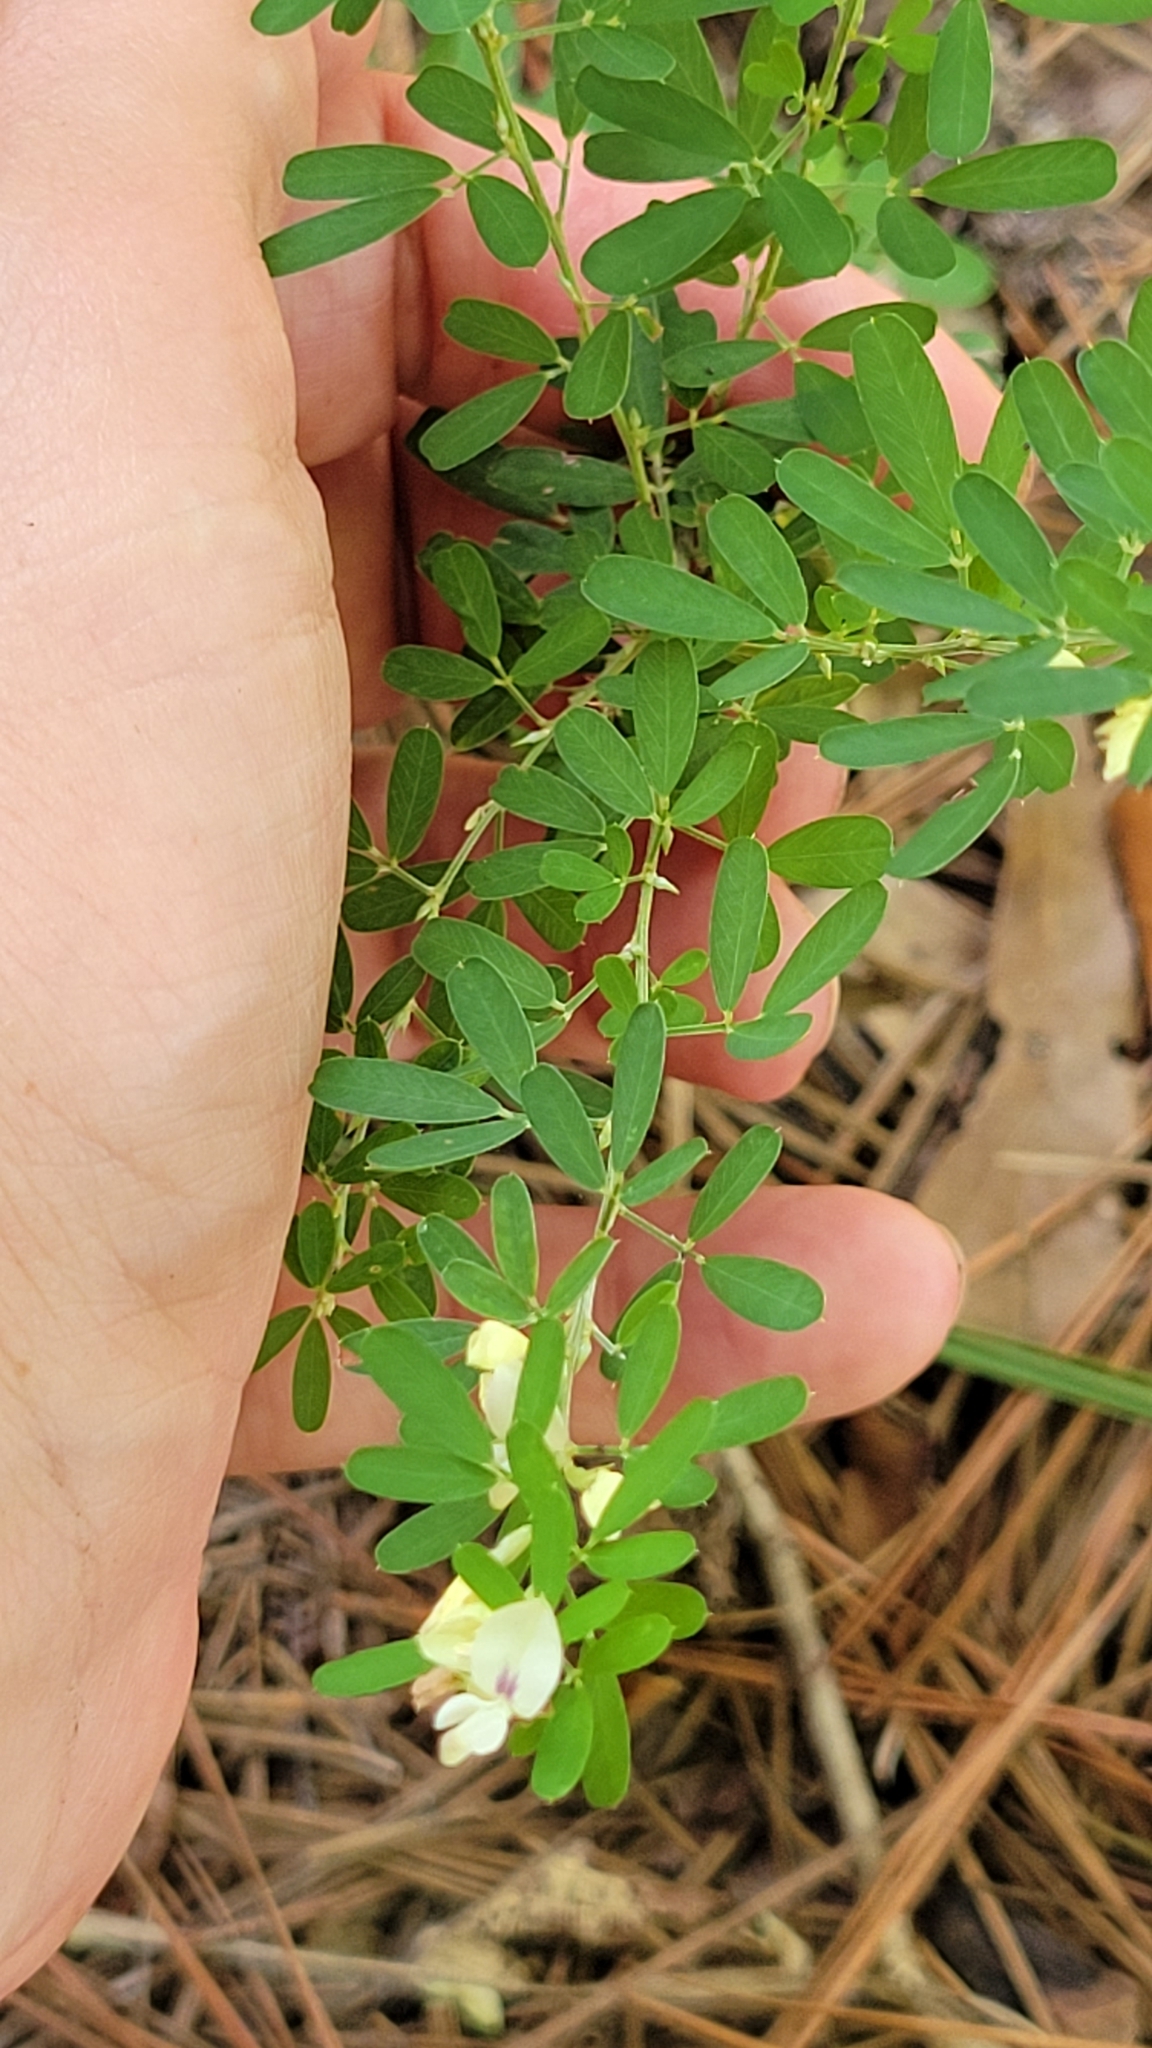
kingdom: Plantae
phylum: Tracheophyta
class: Magnoliopsida
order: Fabales
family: Fabaceae
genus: Lespedeza
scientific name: Lespedeza cuneata
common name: Chinese bush-clover
